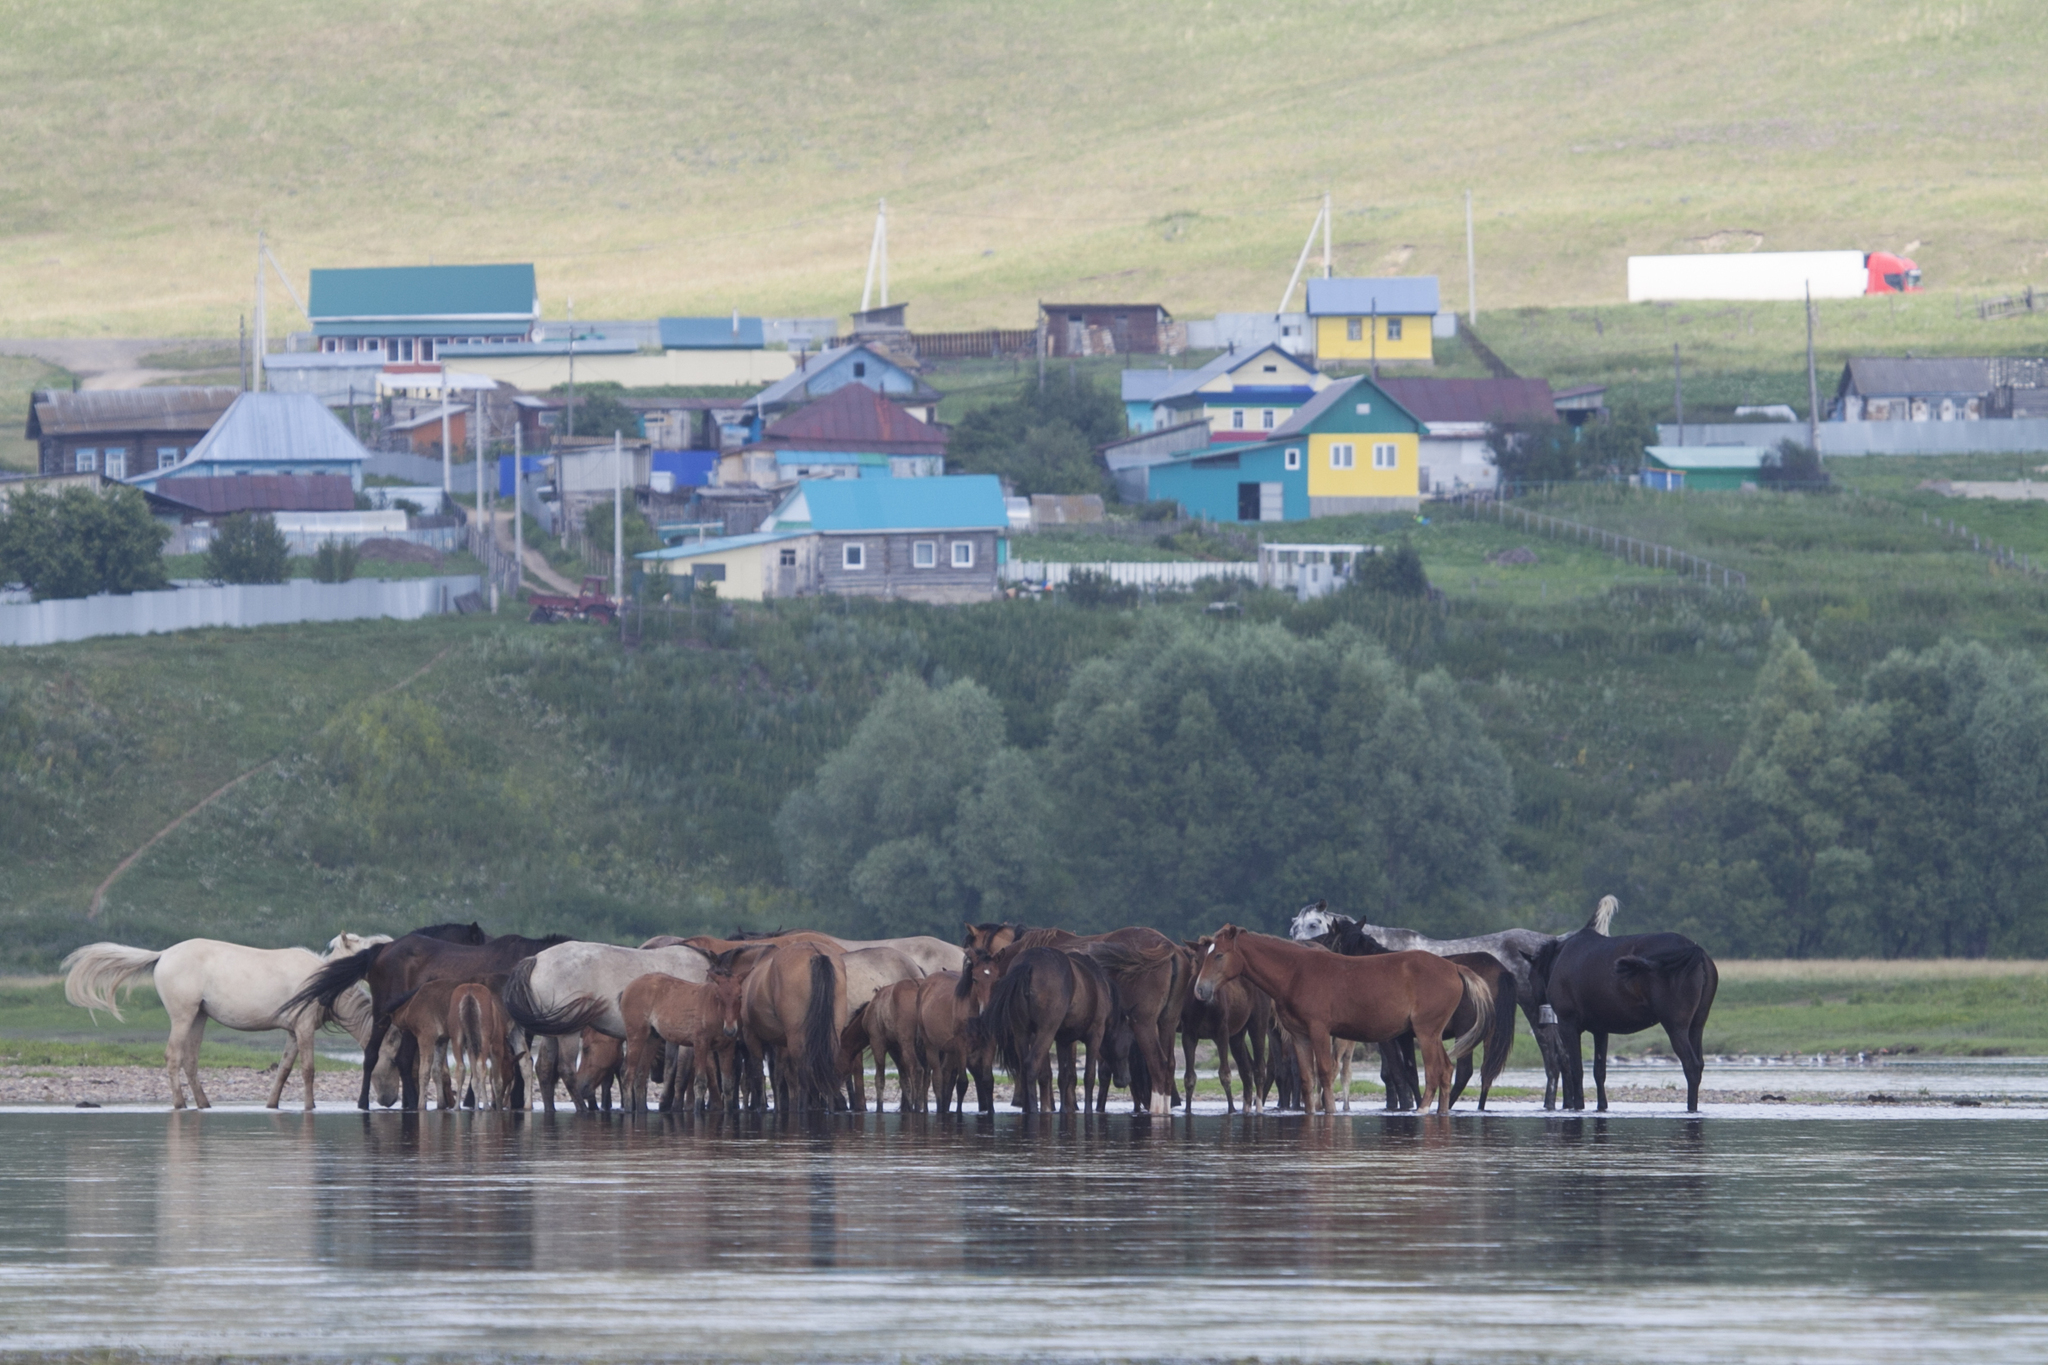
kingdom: Animalia
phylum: Chordata
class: Mammalia
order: Perissodactyla
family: Equidae
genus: Equus
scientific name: Equus caballus
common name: Horse
